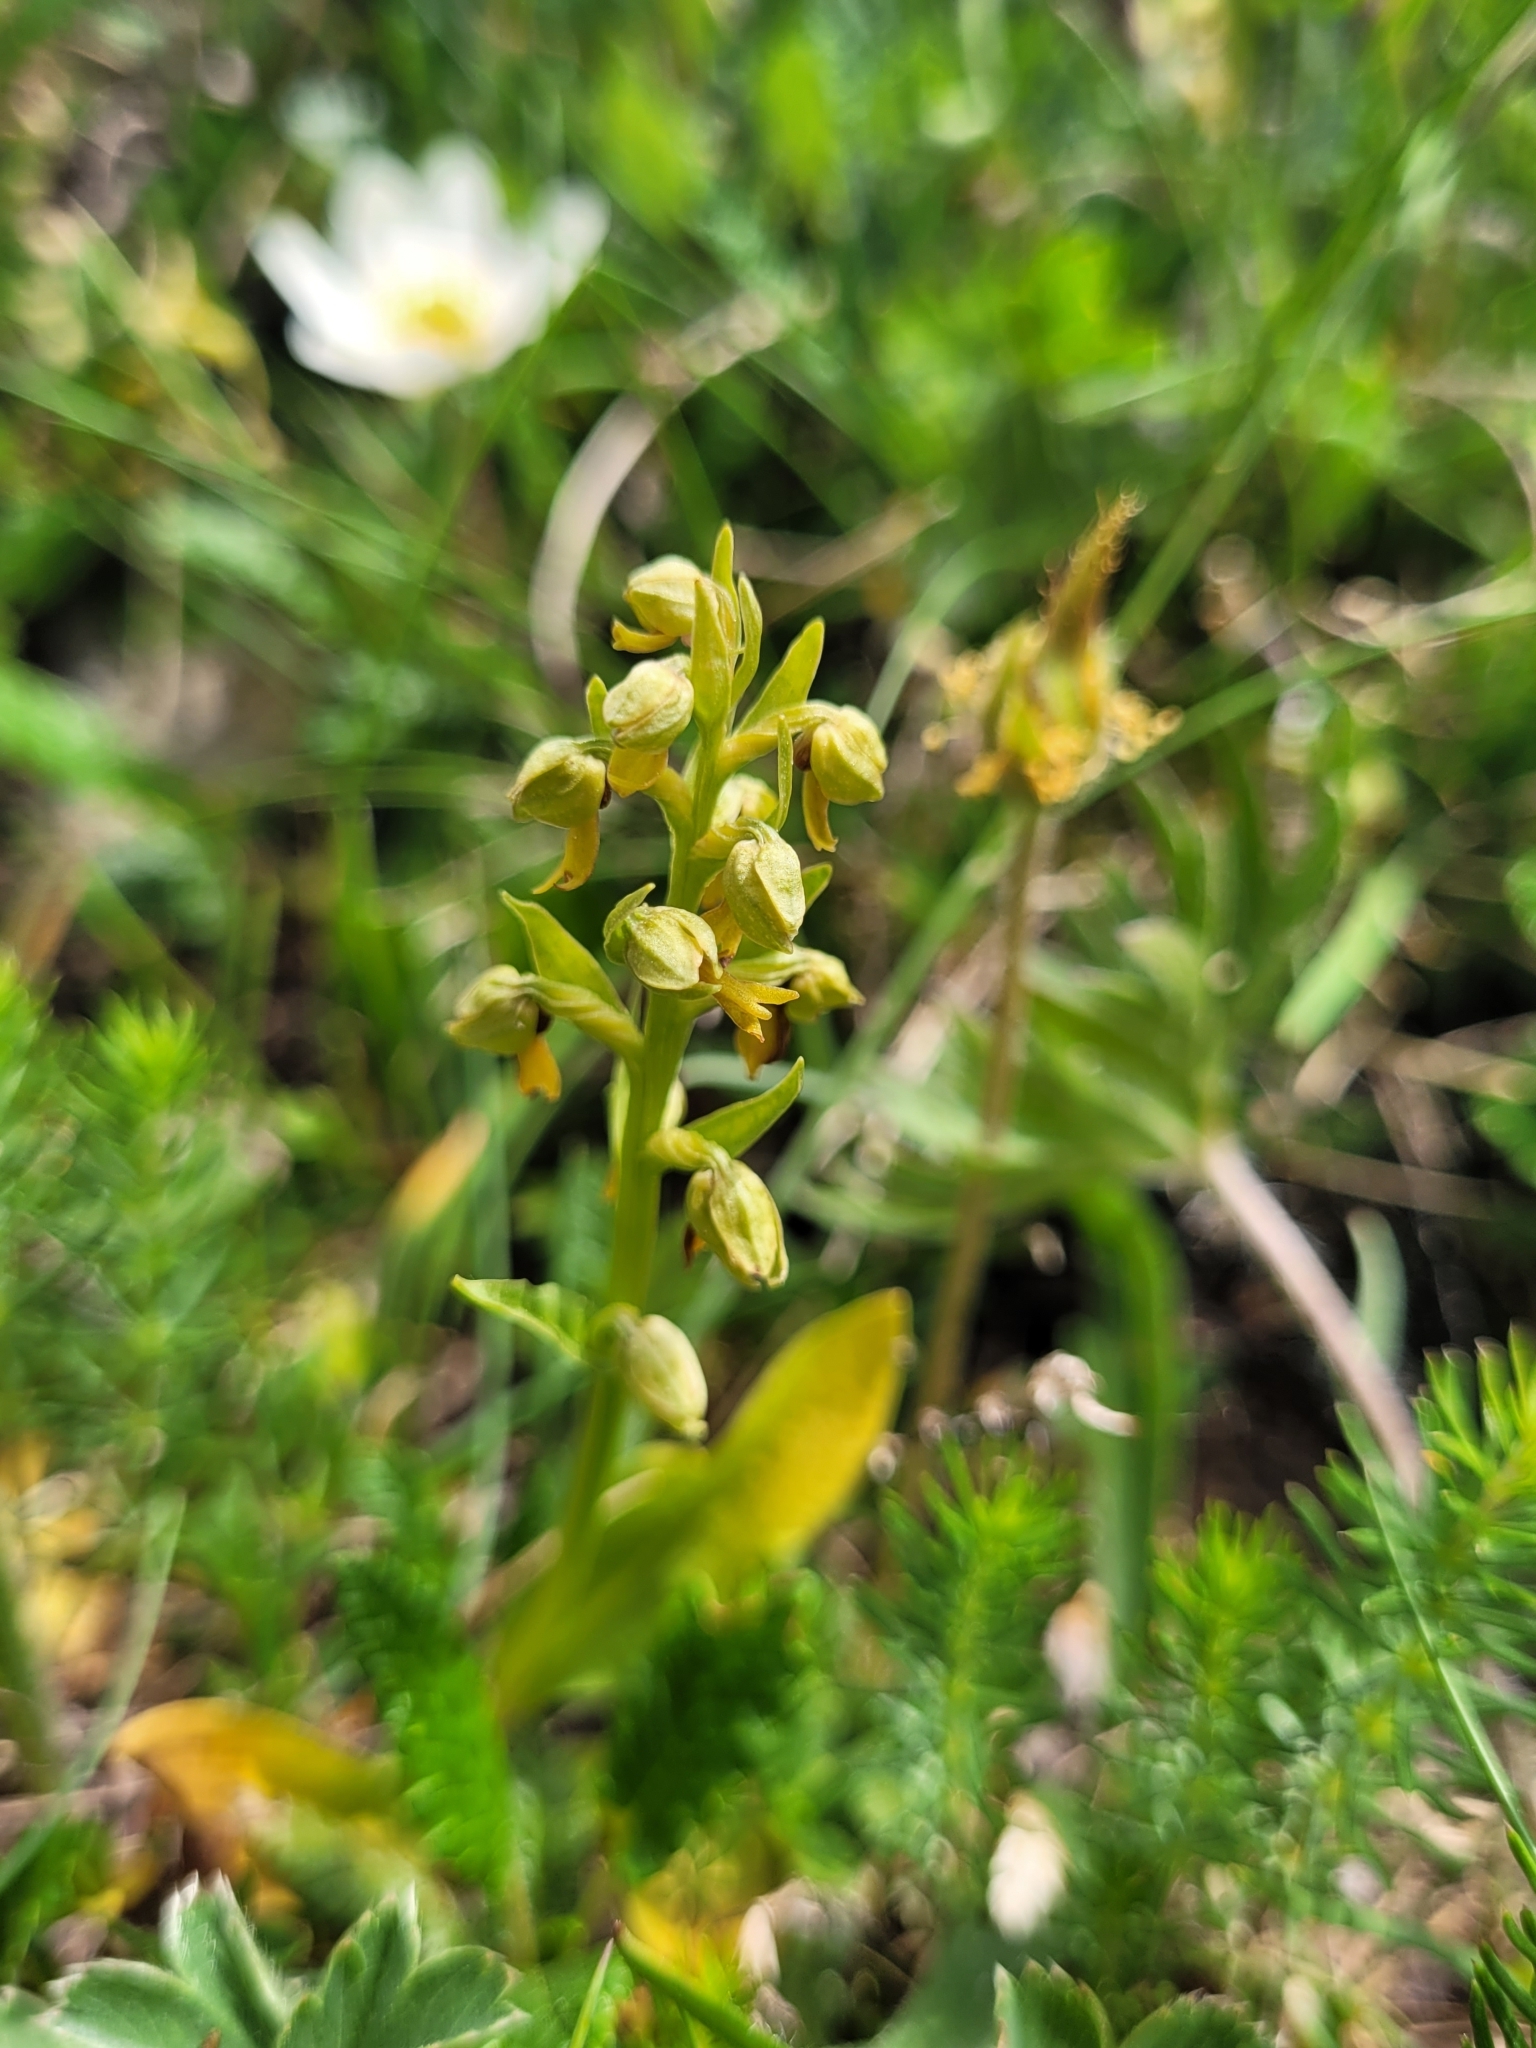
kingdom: Plantae
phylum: Tracheophyta
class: Liliopsida
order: Asparagales
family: Orchidaceae
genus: Dactylorhiza
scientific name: Dactylorhiza viridis
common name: Longbract frog orchid
